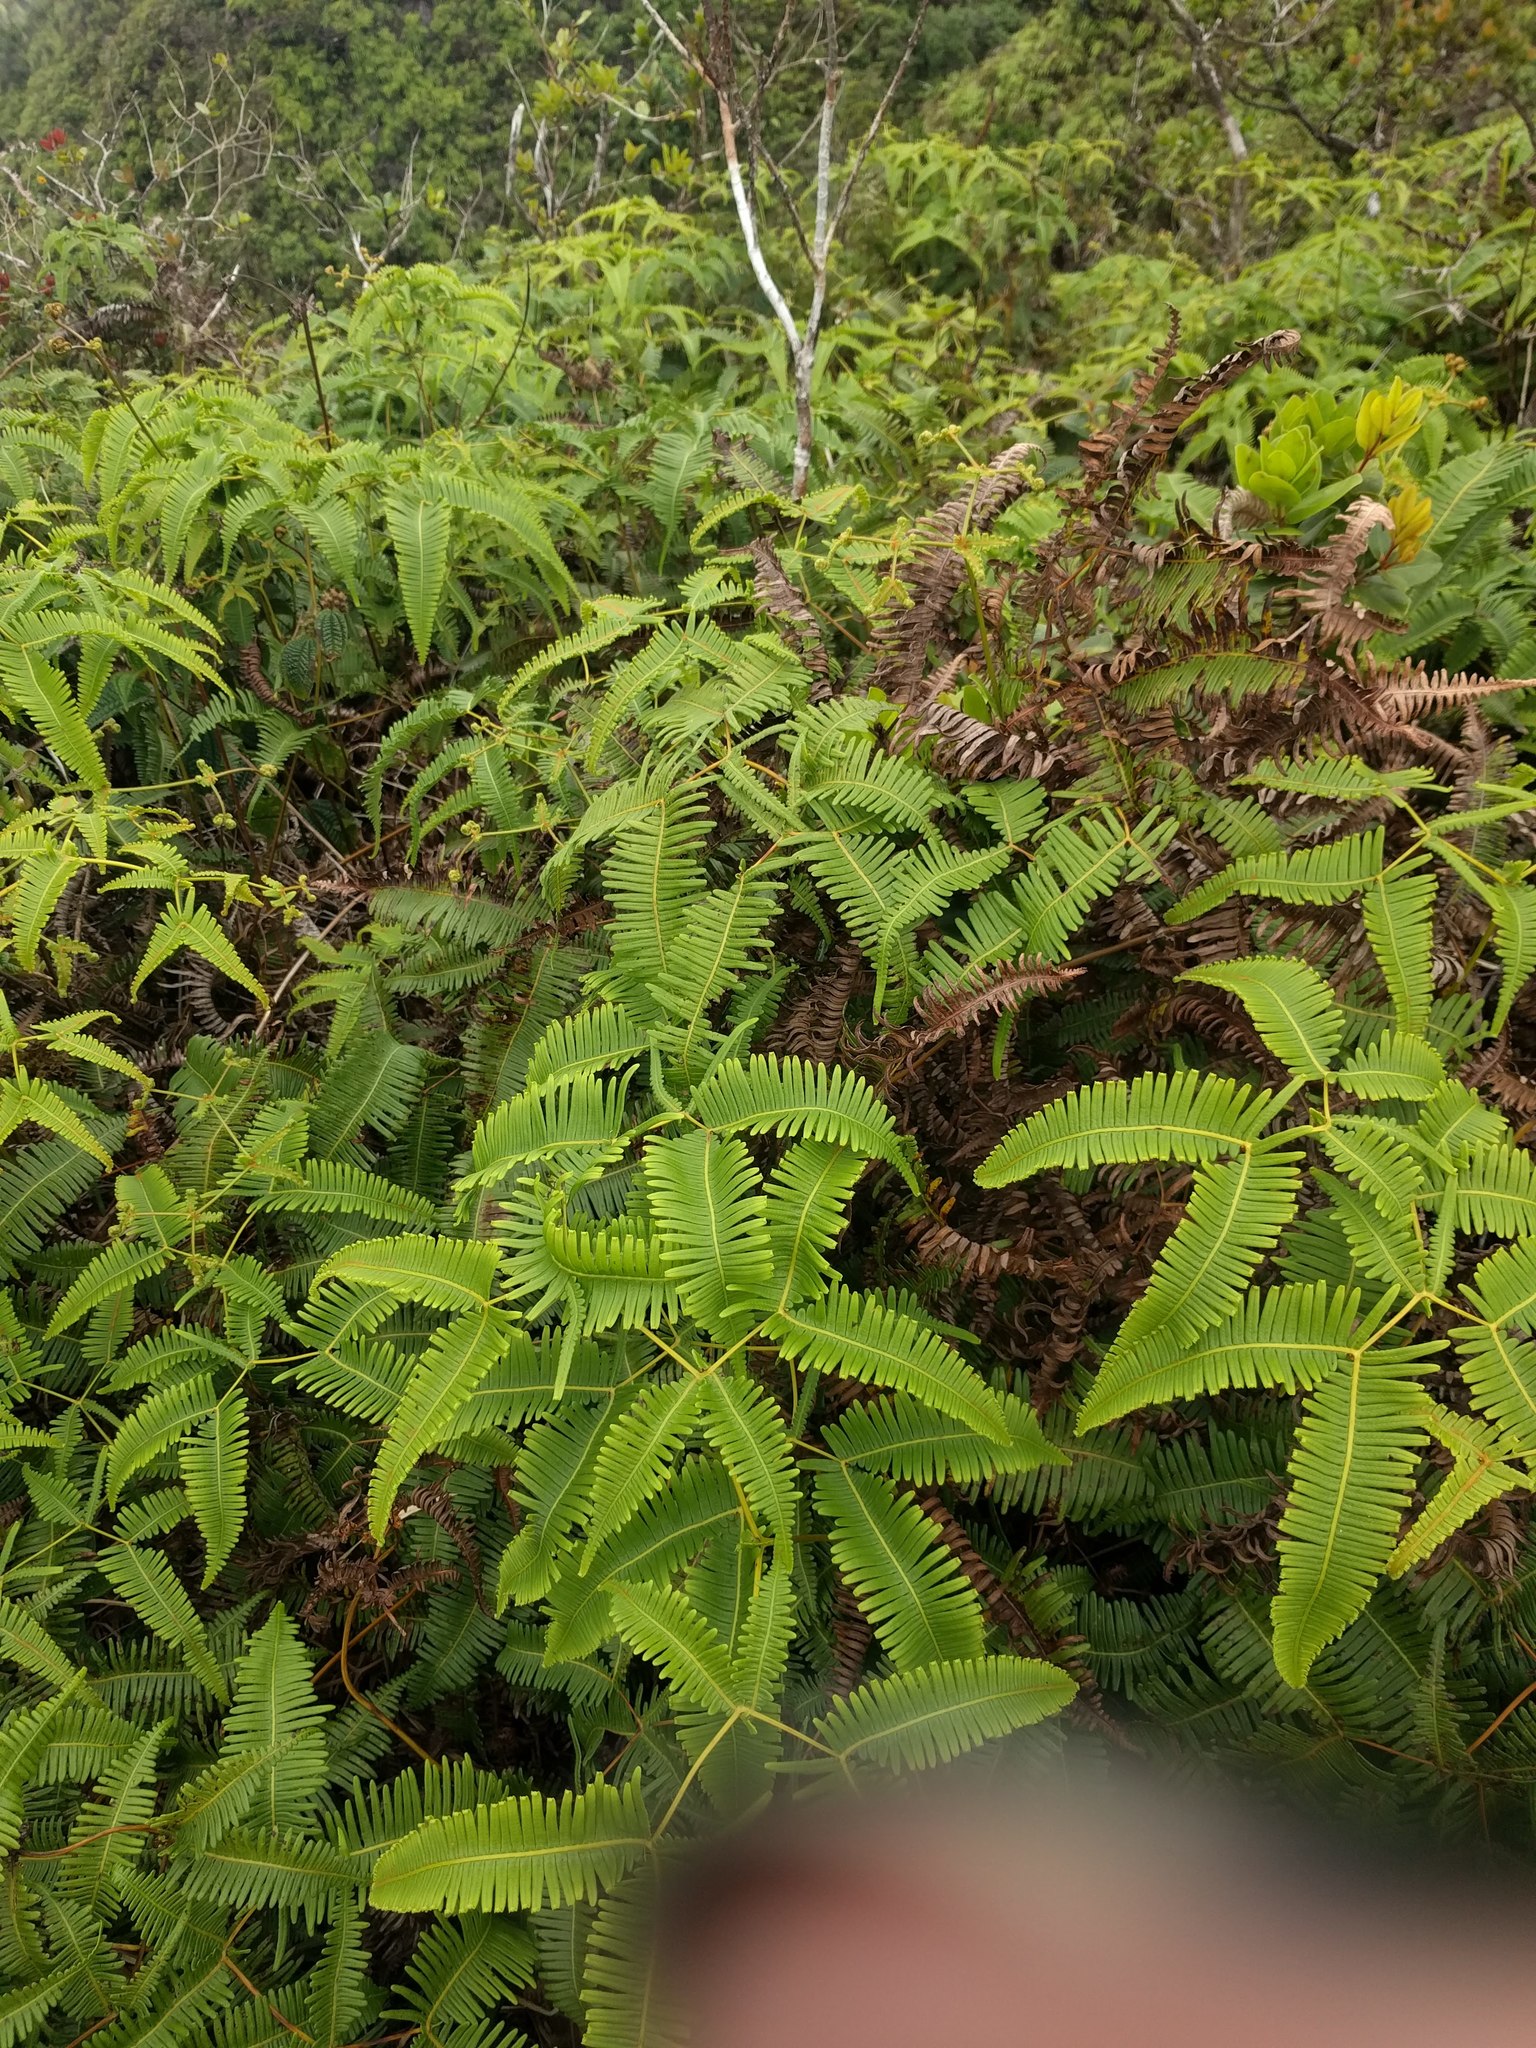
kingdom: Plantae
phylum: Tracheophyta
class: Polypodiopsida
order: Gleicheniales
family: Gleicheniaceae
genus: Dicranopteris
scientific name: Dicranopteris linearis
